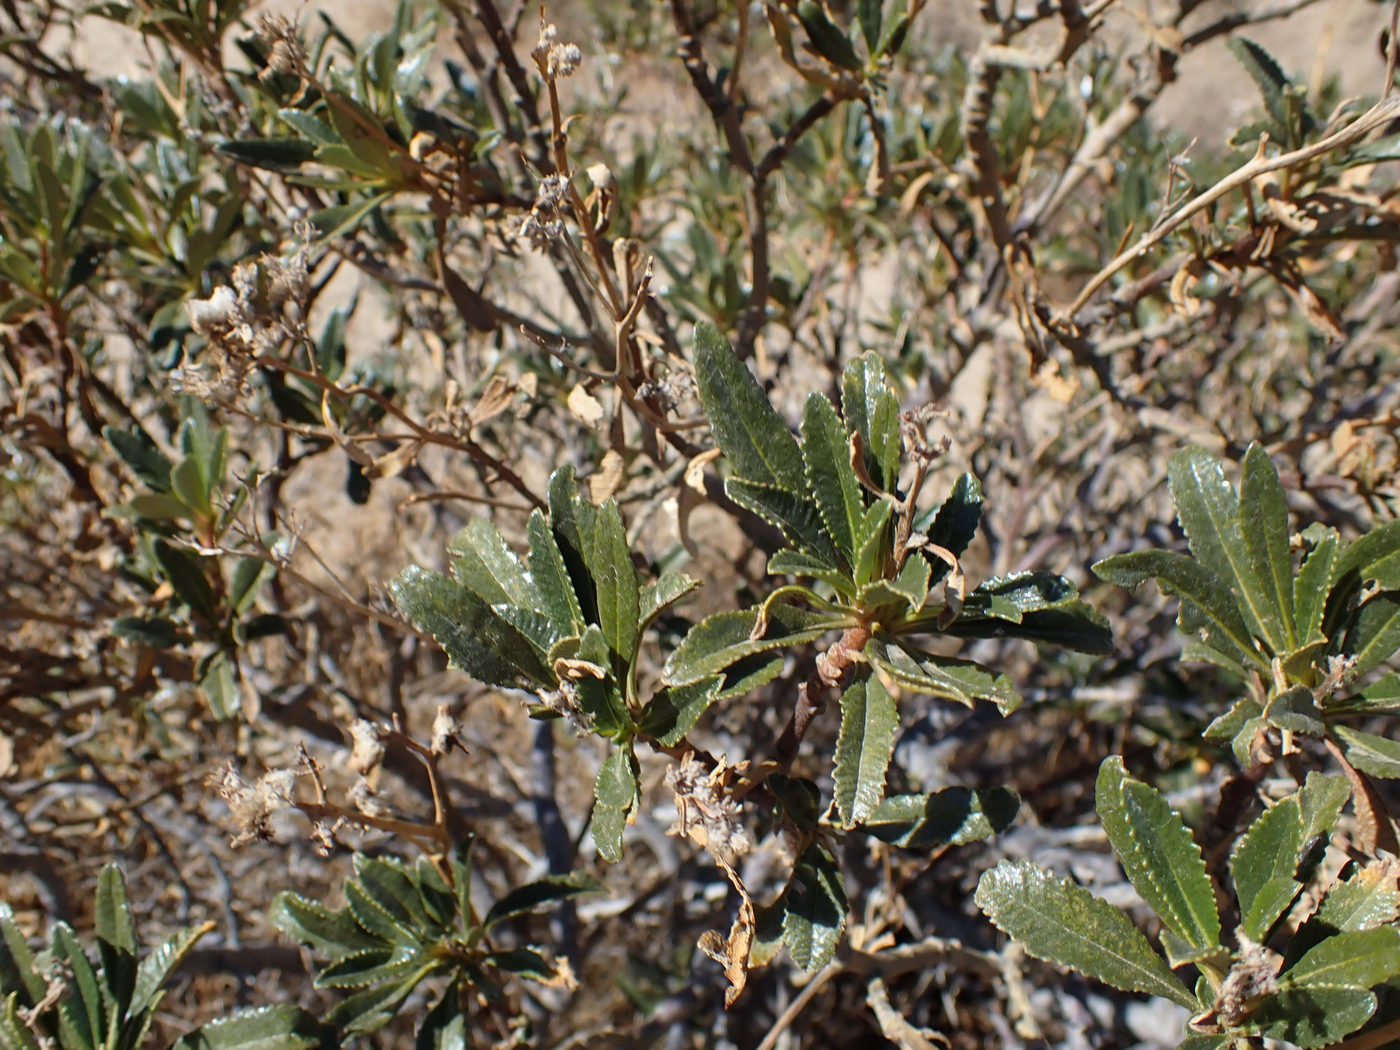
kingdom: Plantae
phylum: Tracheophyta
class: Magnoliopsida
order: Boraginales
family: Namaceae
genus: Eriodictyon
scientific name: Eriodictyon trichocalyx
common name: Hairy yerba-santa
